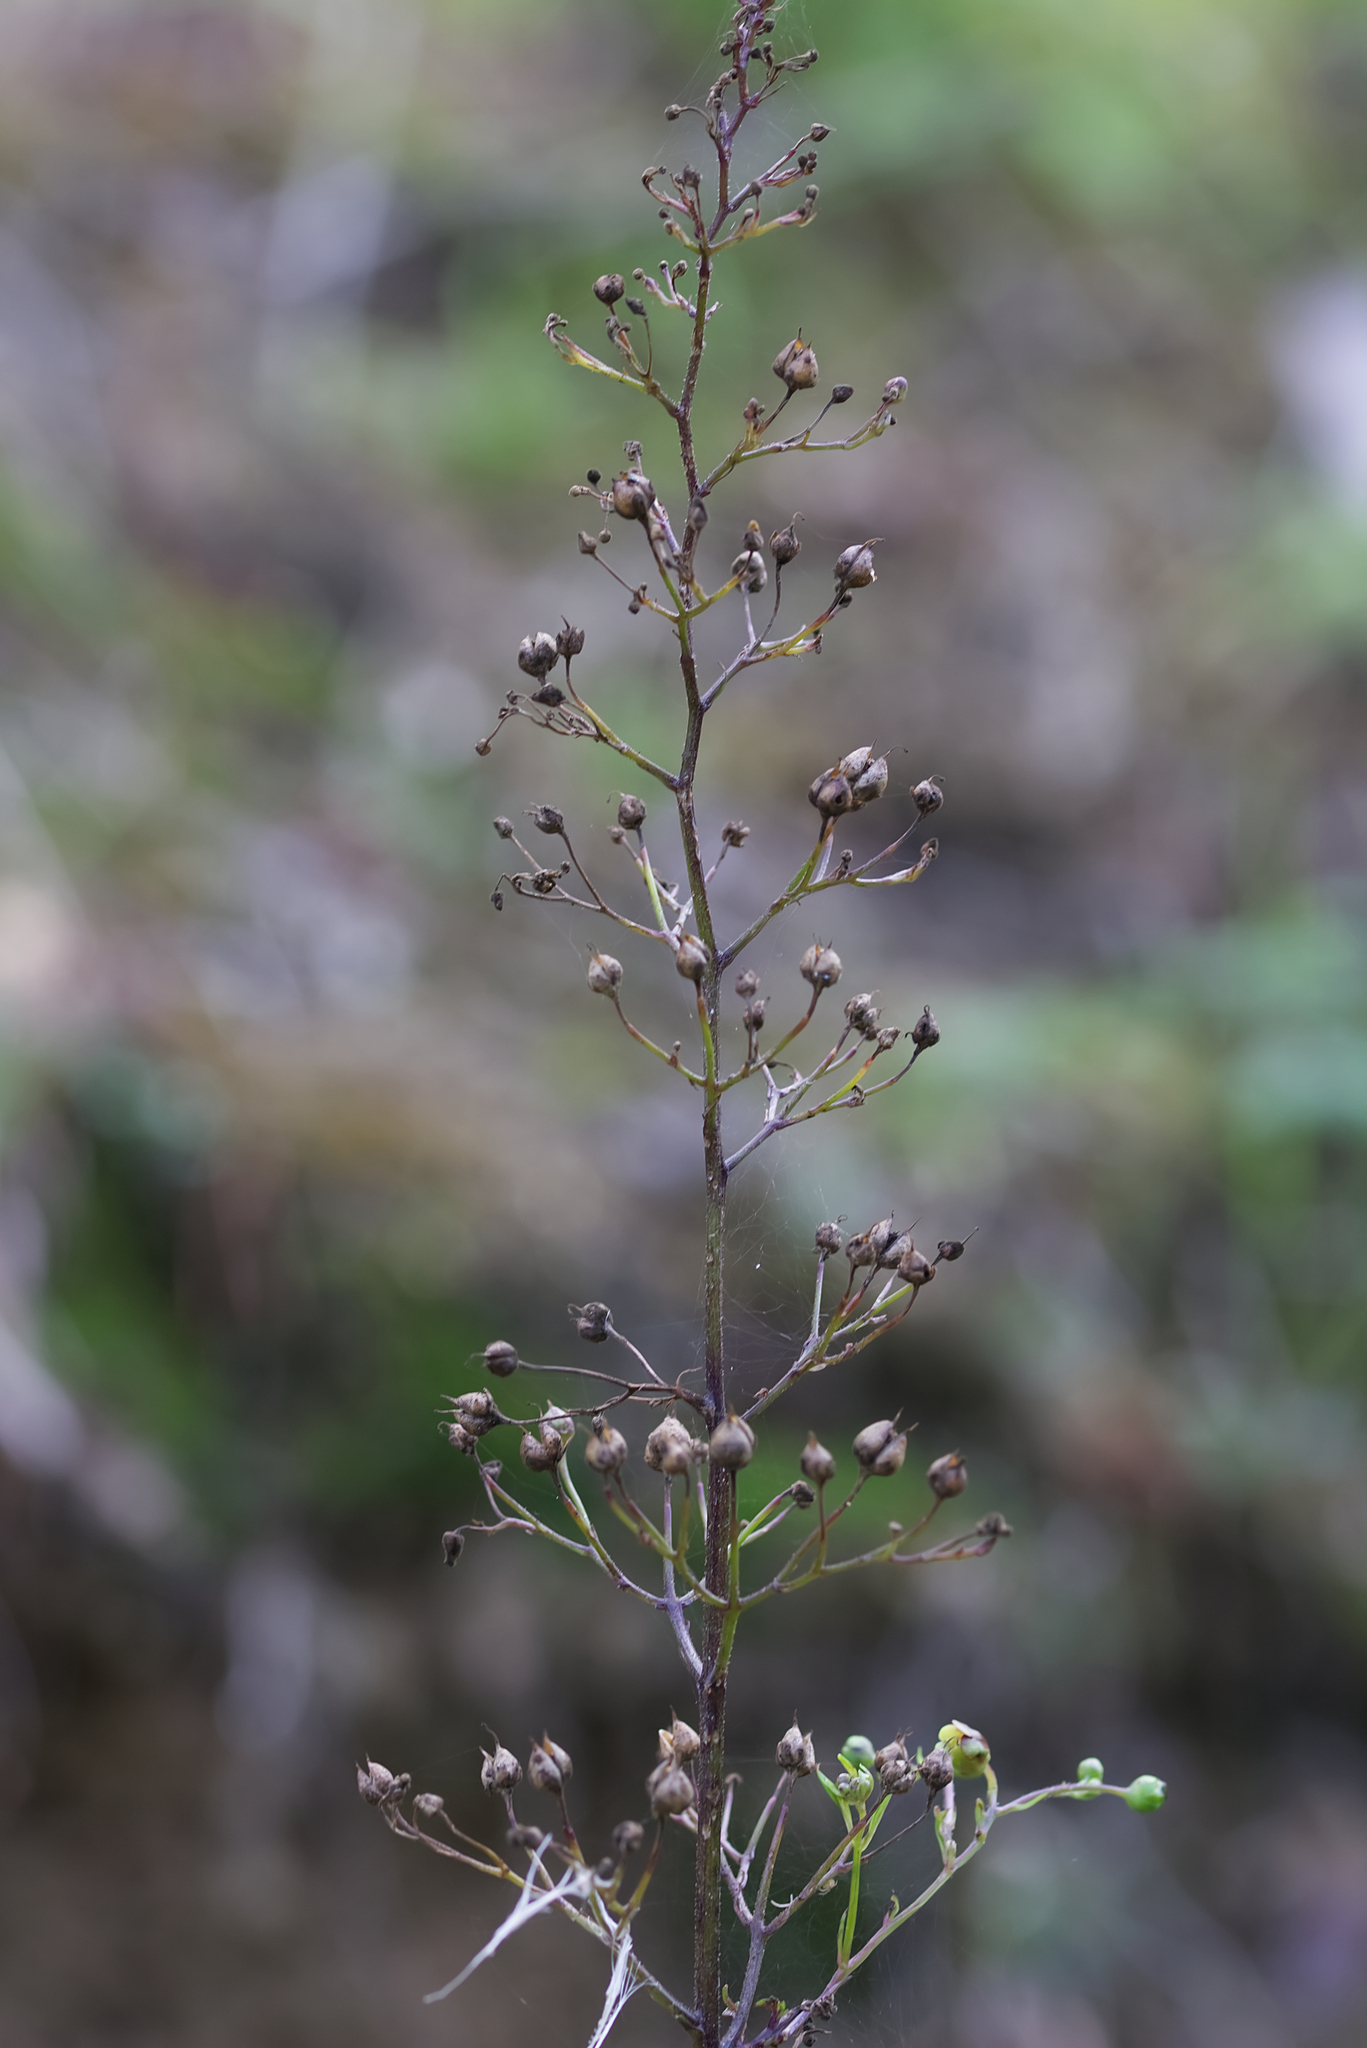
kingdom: Plantae
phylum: Tracheophyta
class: Magnoliopsida
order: Lamiales
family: Scrophulariaceae
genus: Scrophularia
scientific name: Scrophularia nodosa
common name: Common figwort
